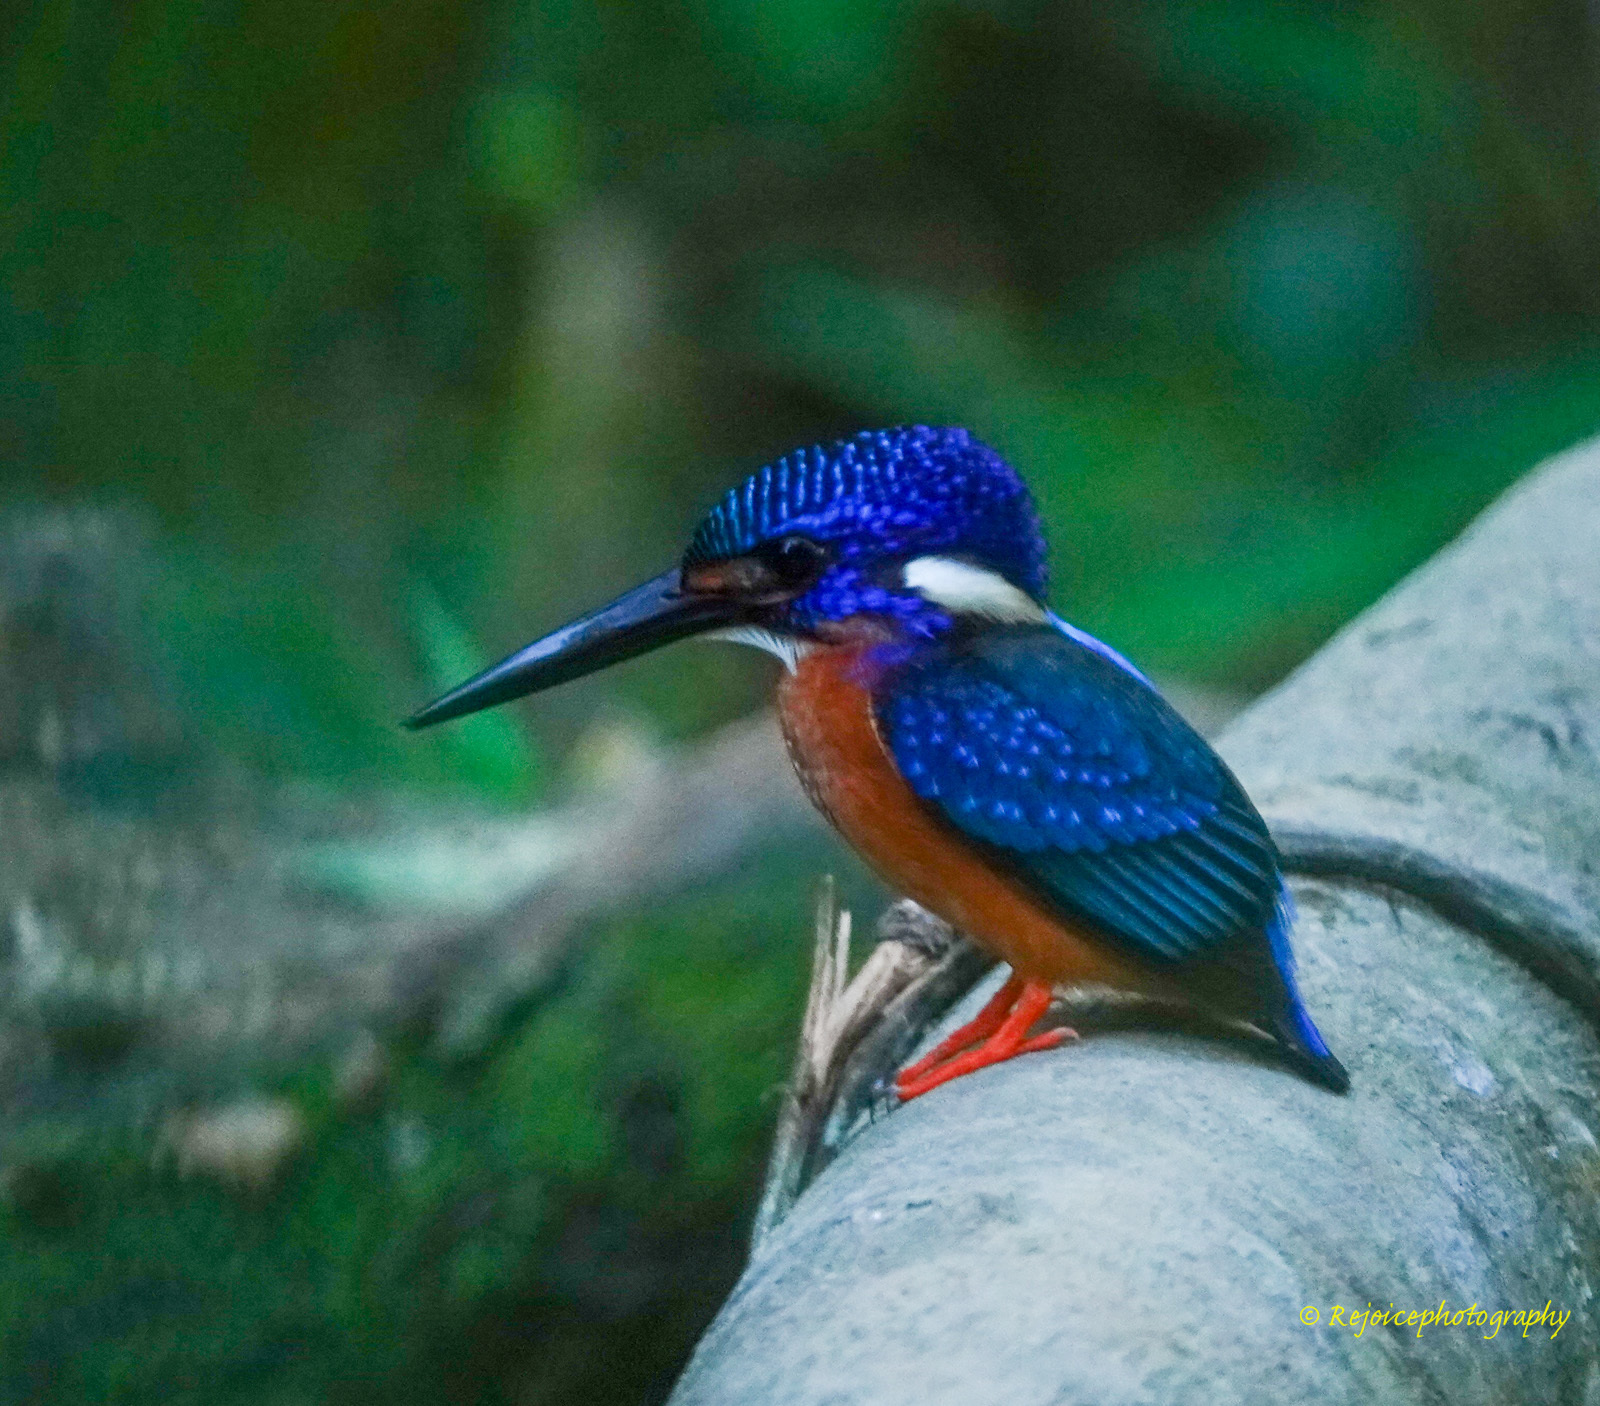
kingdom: Animalia
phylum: Chordata
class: Aves
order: Coraciiformes
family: Alcedinidae
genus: Alcedo
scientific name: Alcedo meninting
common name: Blue-eared kingfisher
